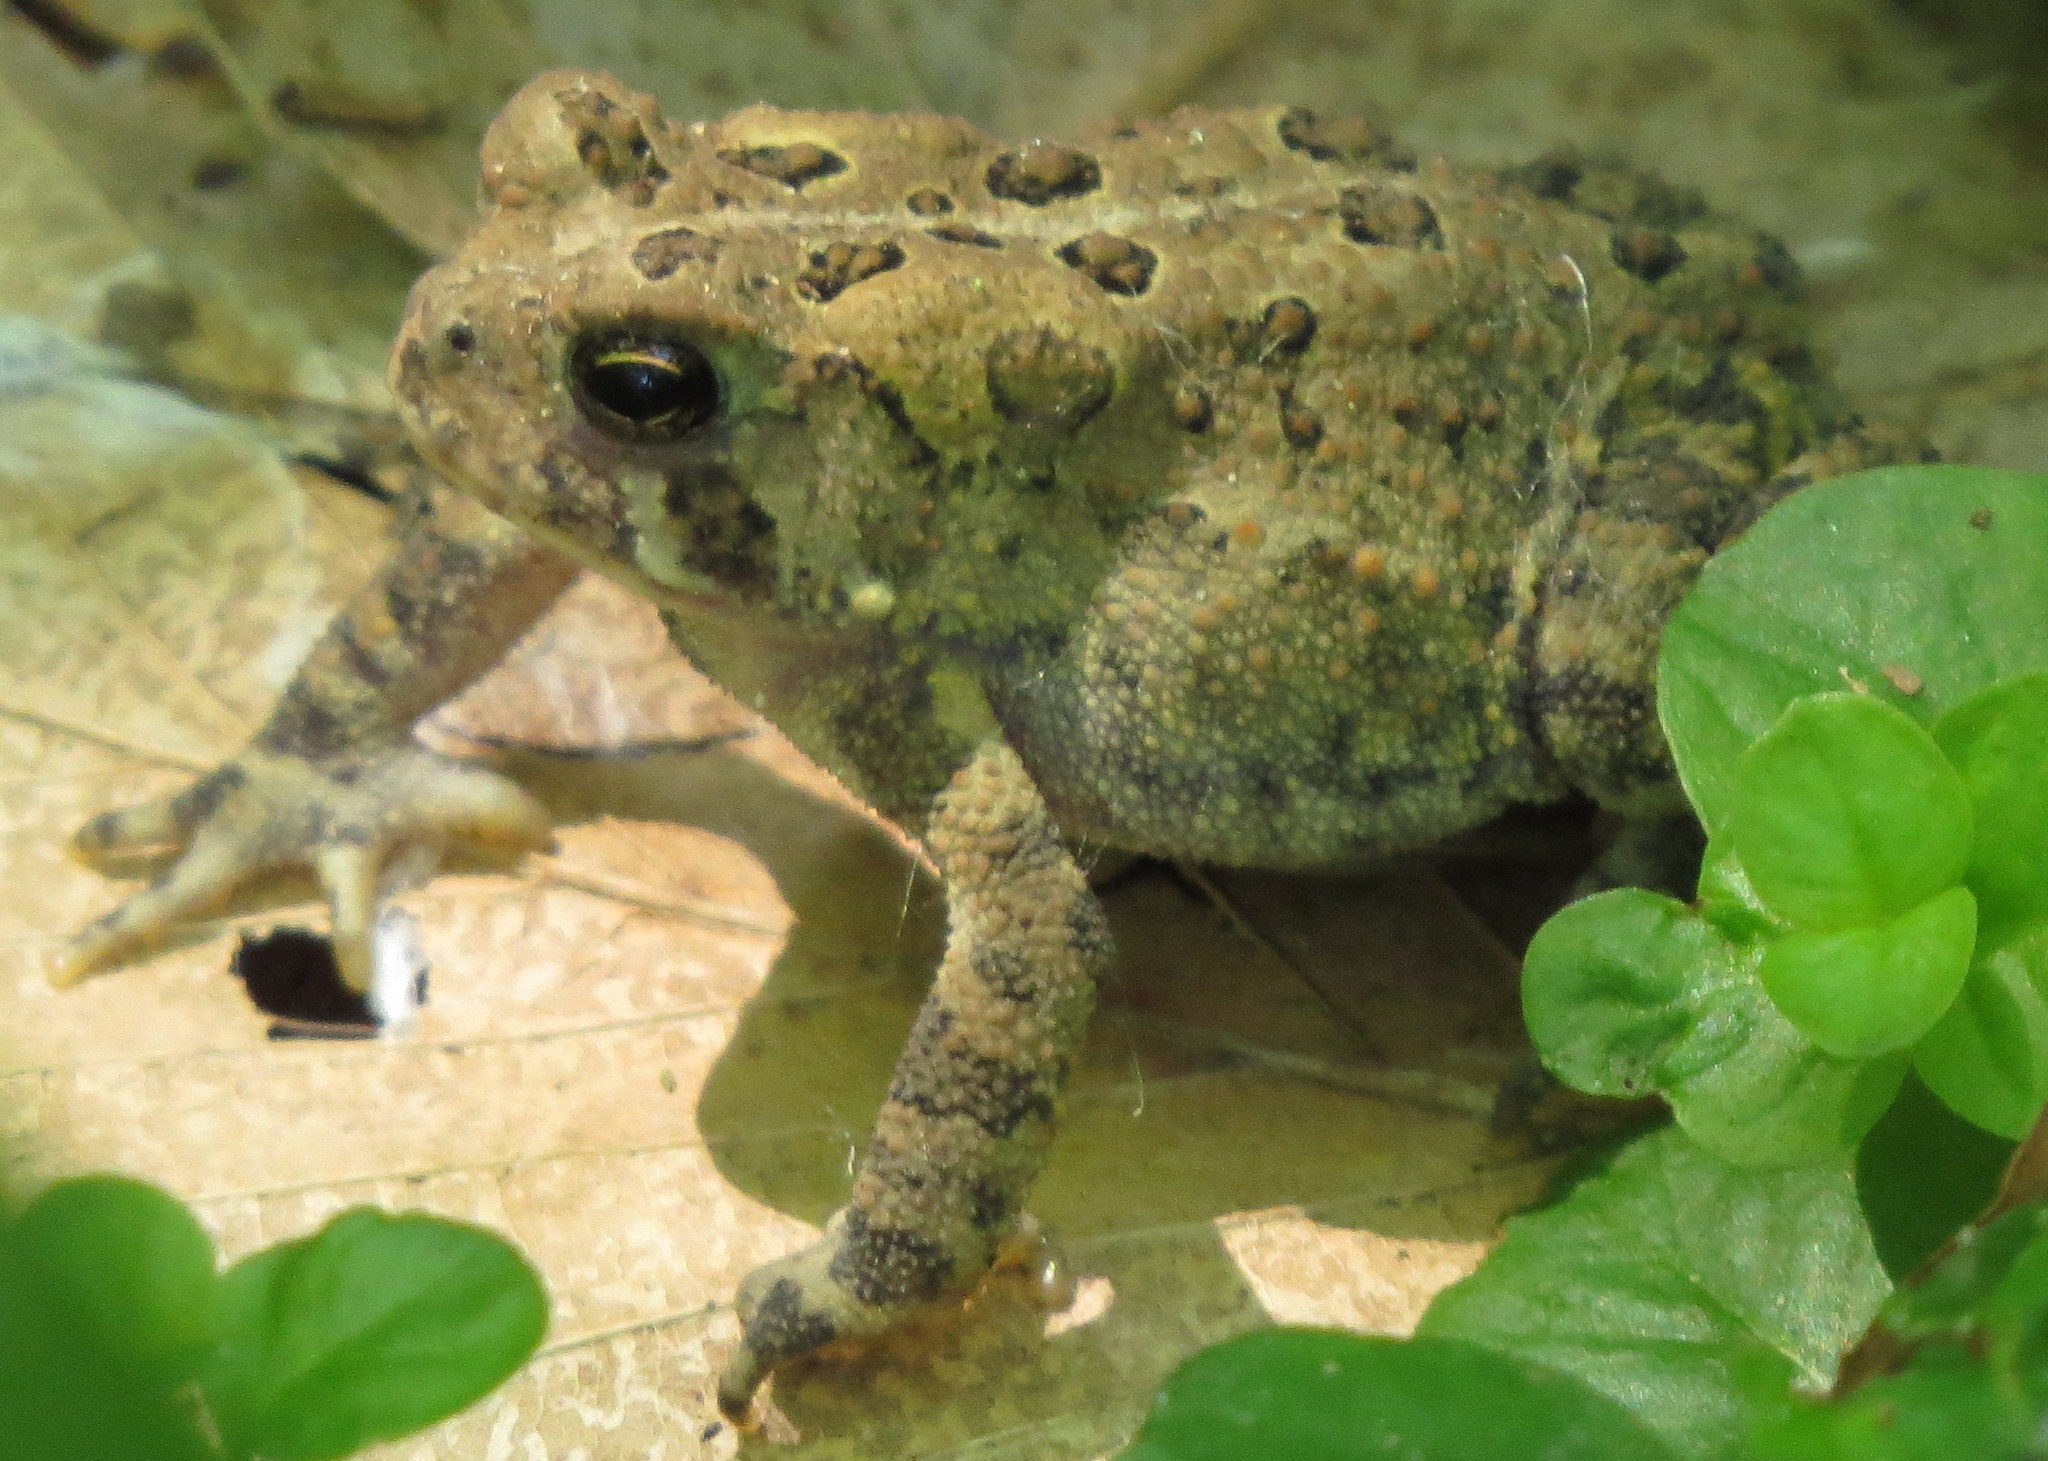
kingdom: Animalia
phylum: Chordata
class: Amphibia
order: Anura
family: Bufonidae
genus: Anaxyrus
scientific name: Anaxyrus americanus
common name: American toad
